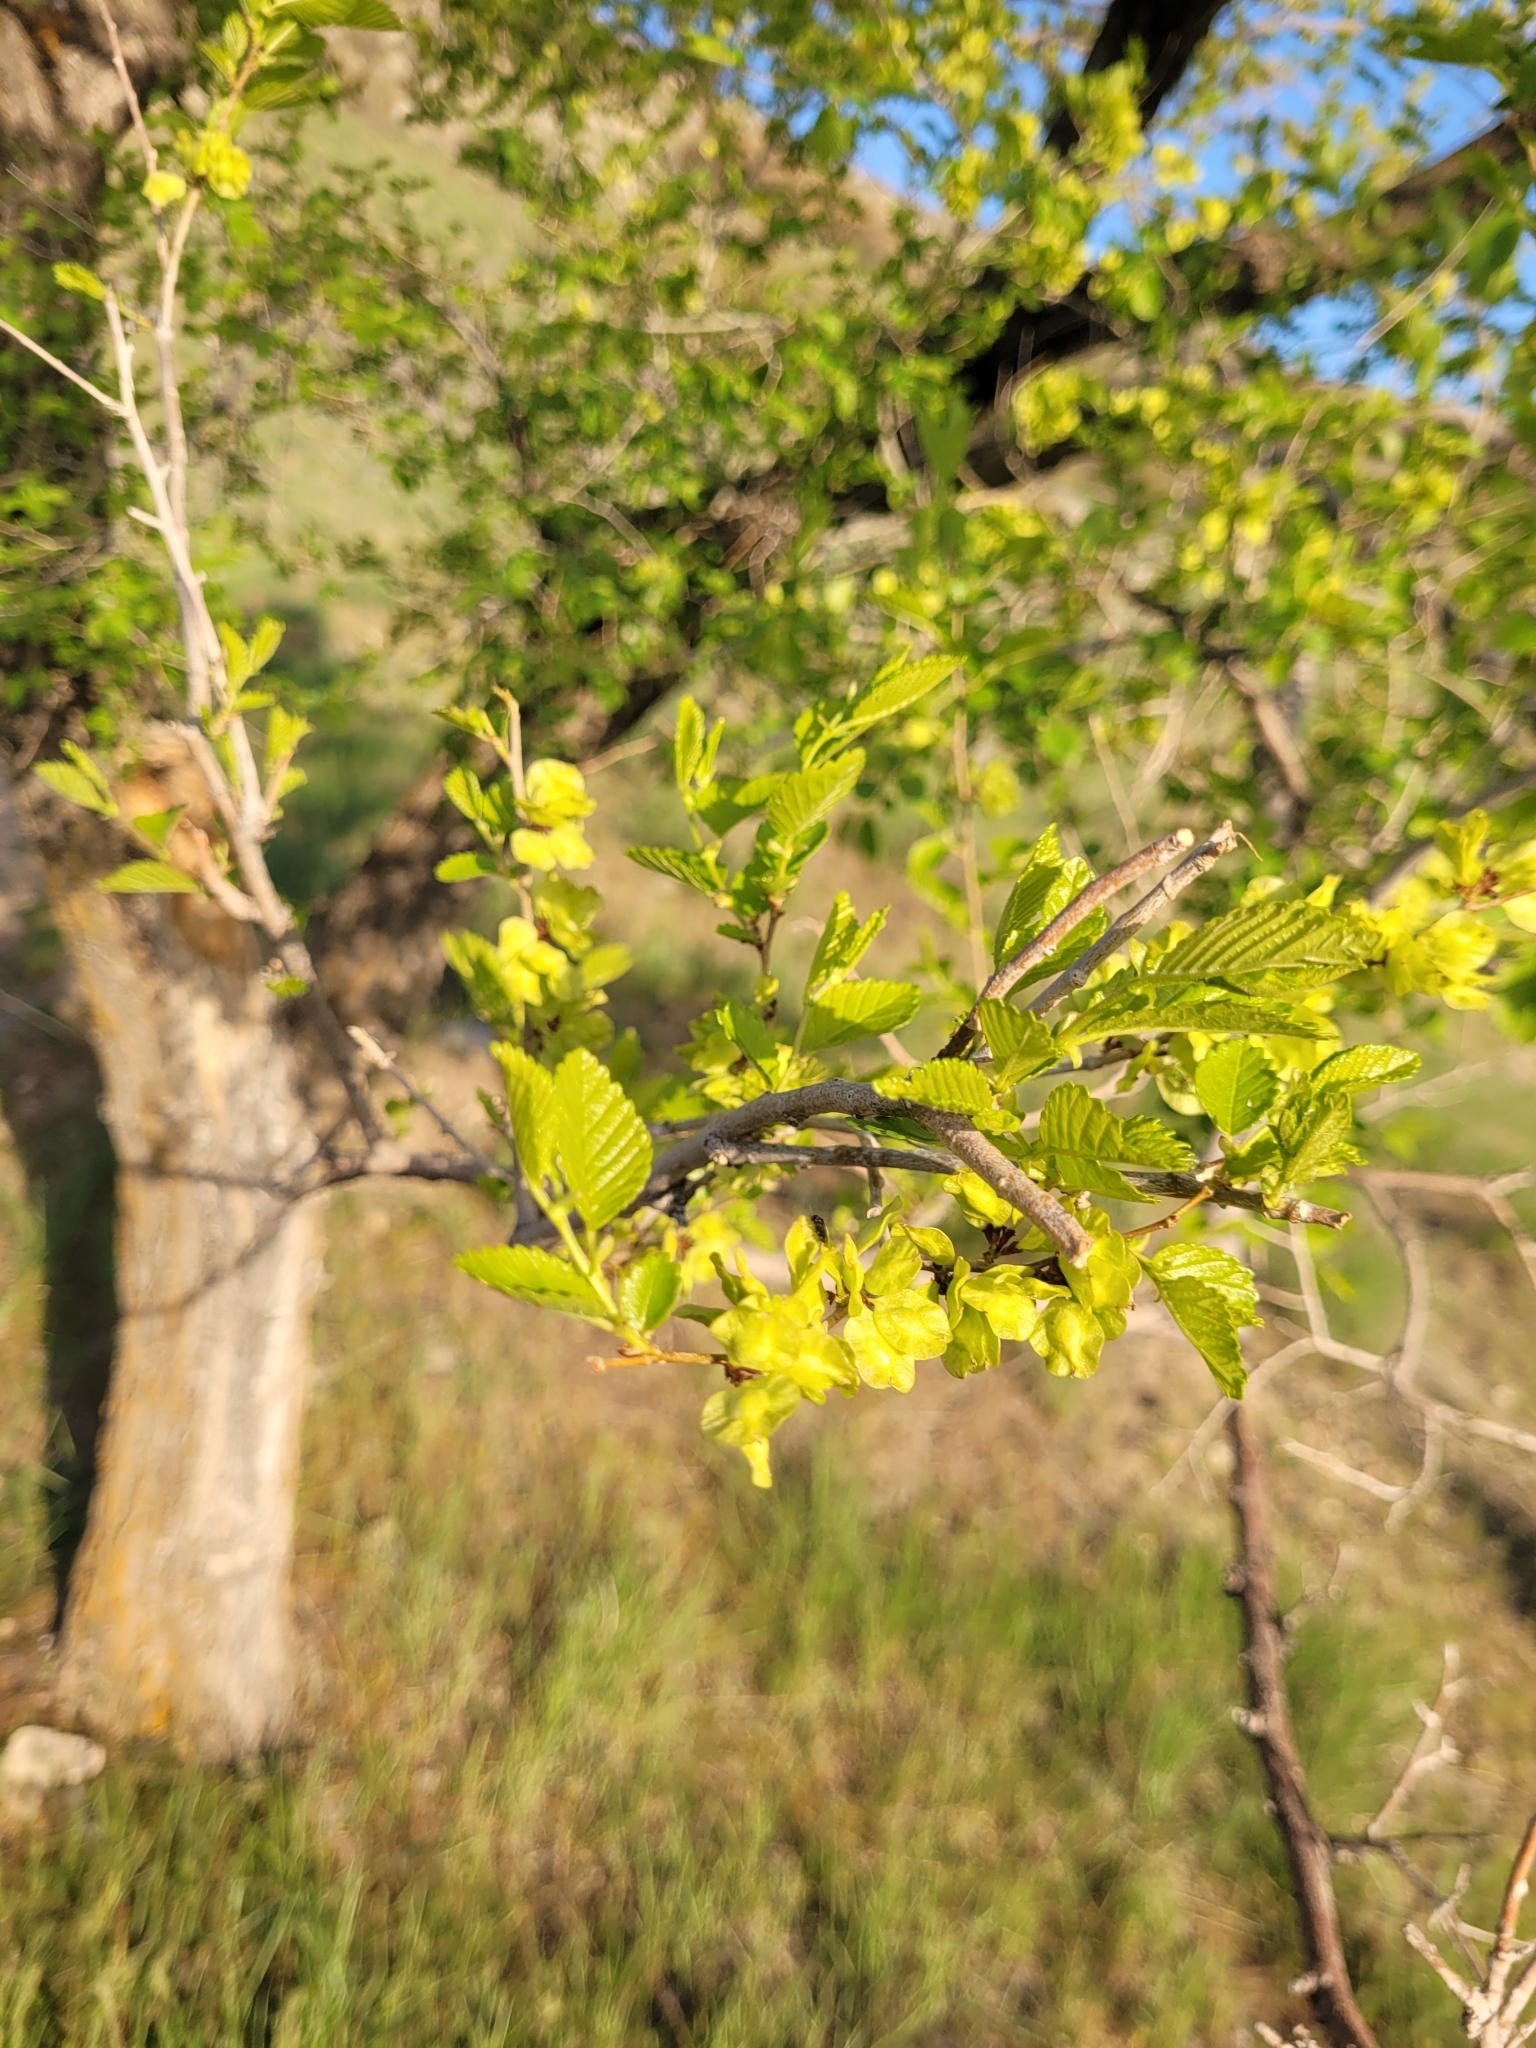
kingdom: Plantae
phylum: Tracheophyta
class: Magnoliopsida
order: Rosales
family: Ulmaceae
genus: Ulmus
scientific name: Ulmus pumila
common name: Siberian elm
